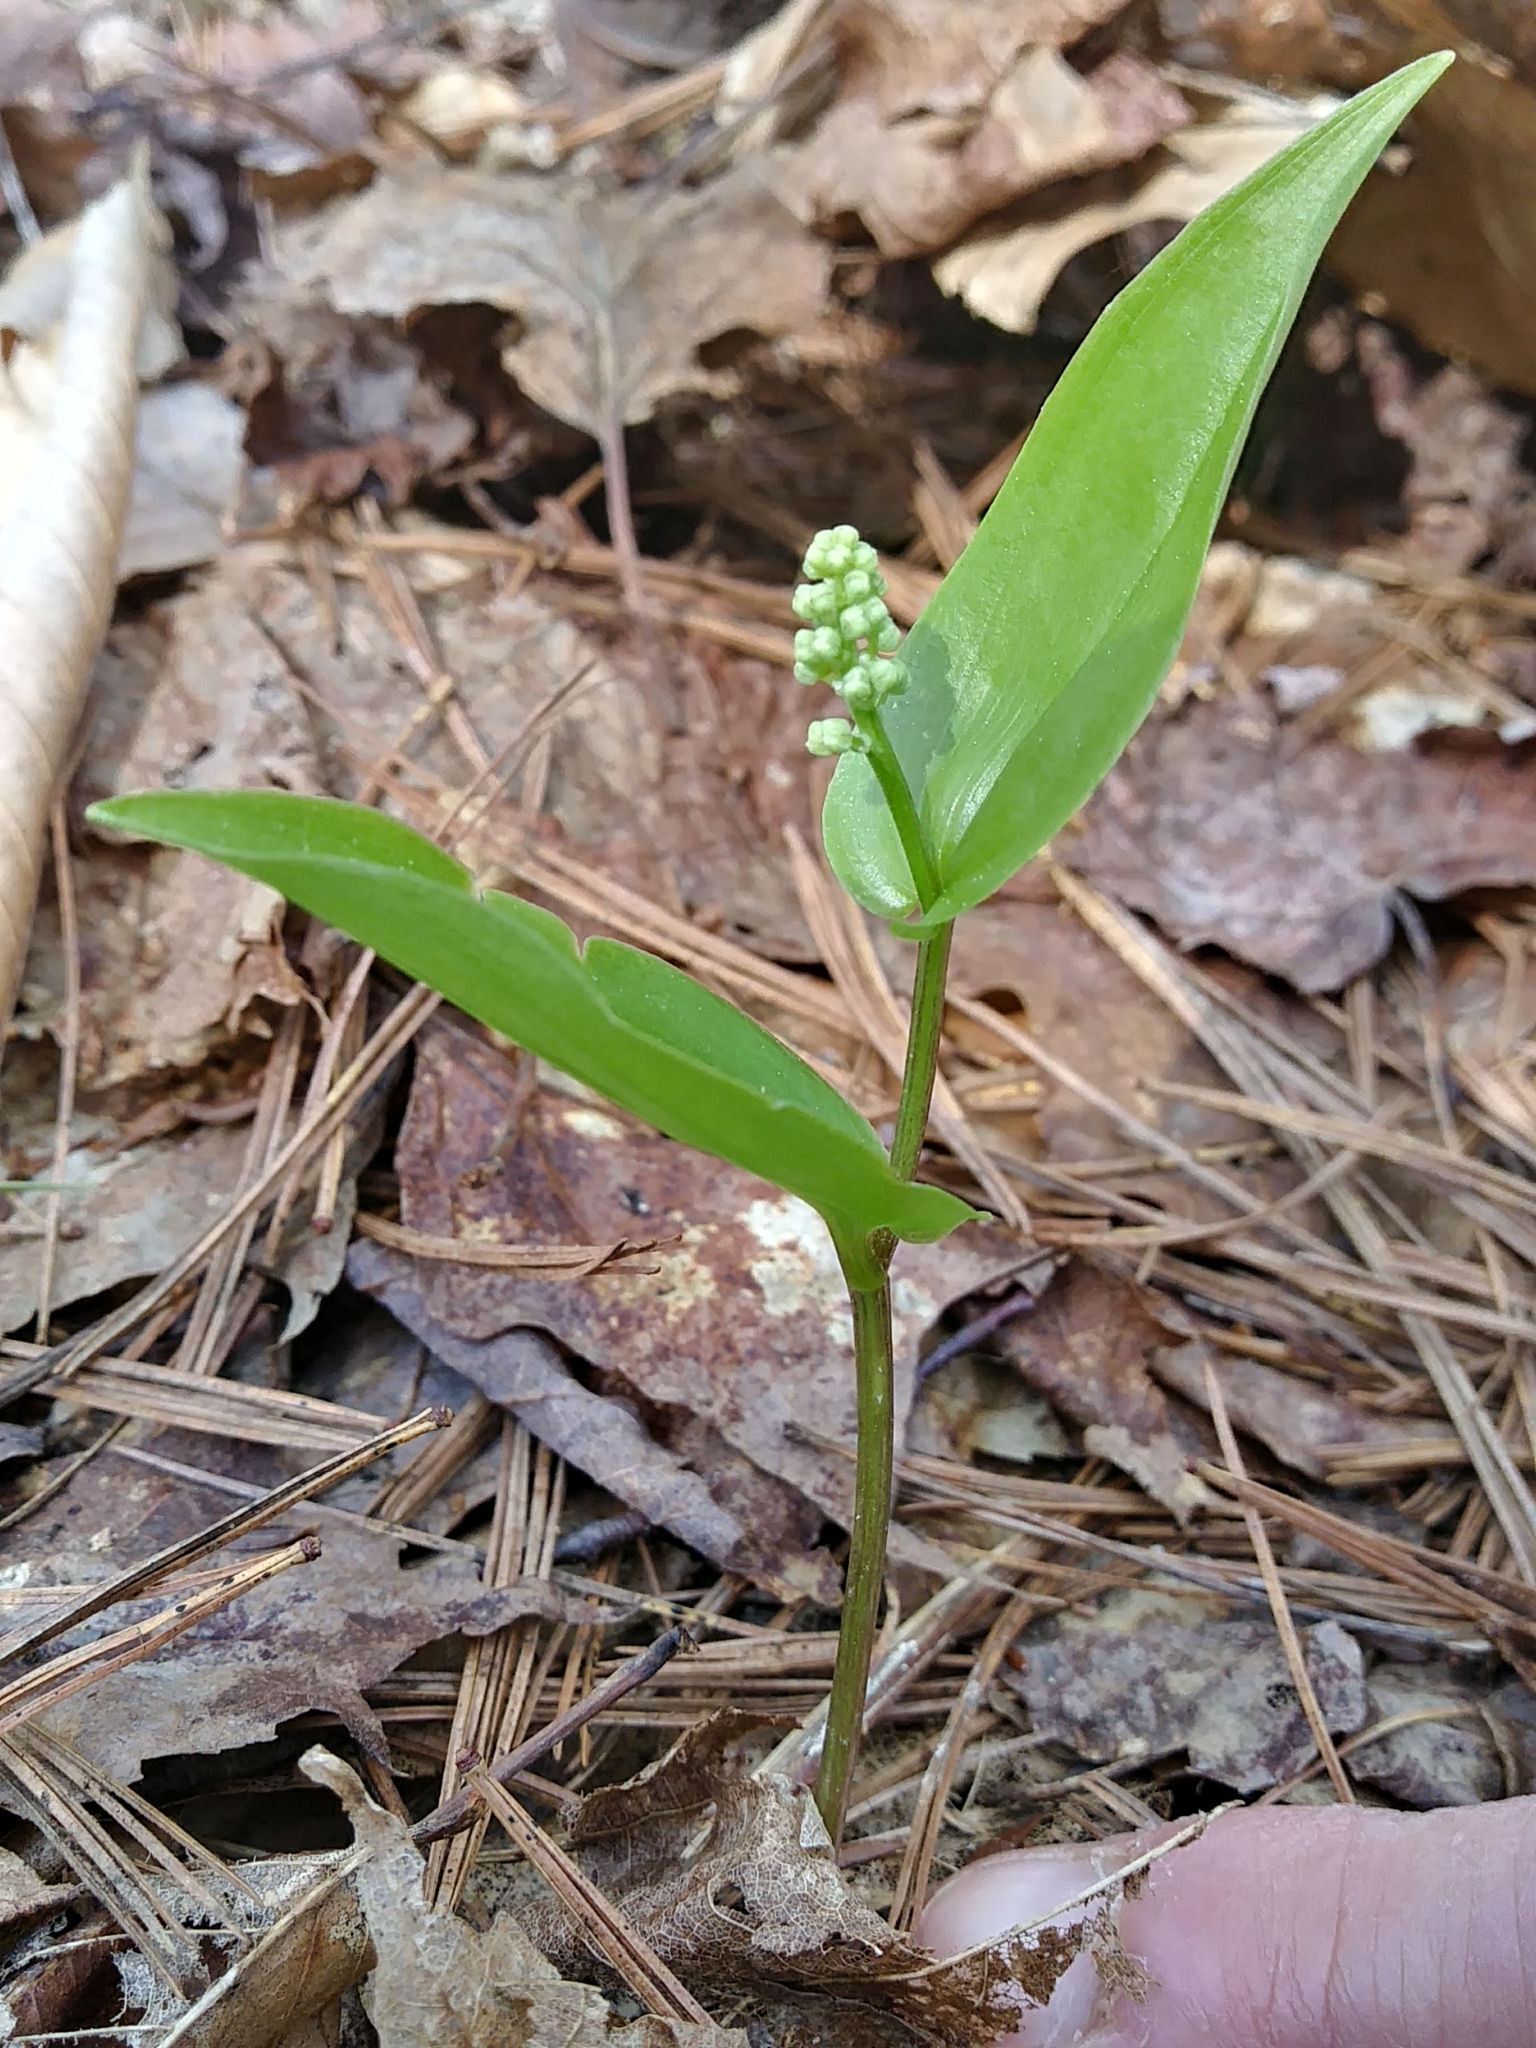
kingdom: Plantae
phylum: Tracheophyta
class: Liliopsida
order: Asparagales
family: Asparagaceae
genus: Maianthemum
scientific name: Maianthemum canadense
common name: False lily-of-the-valley
